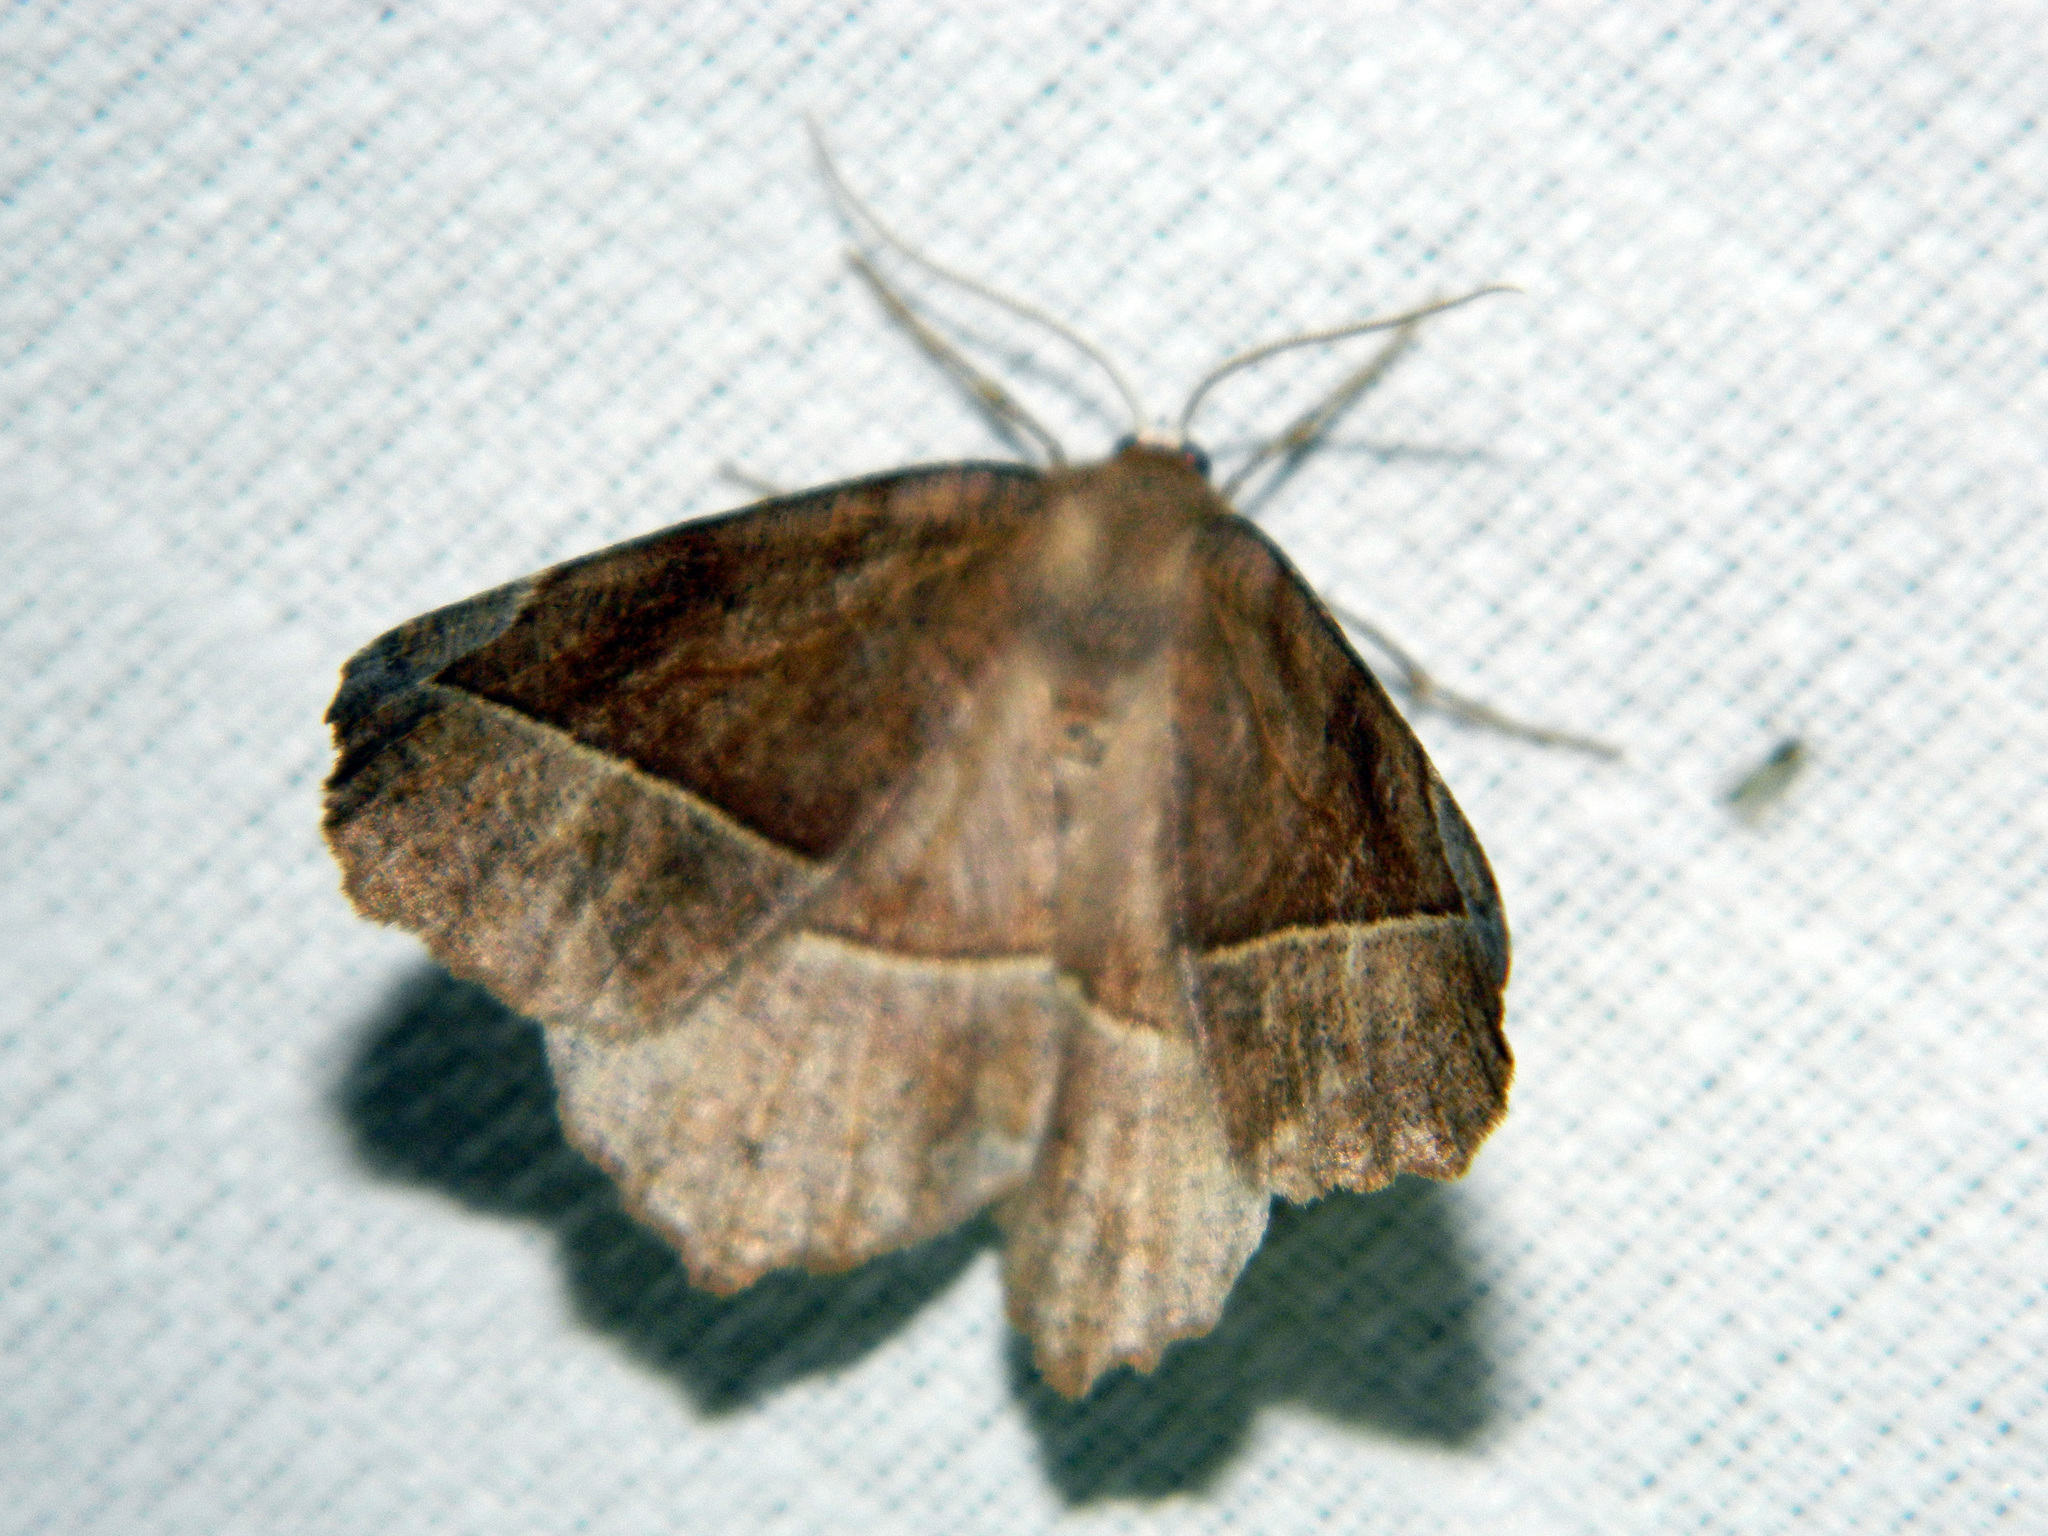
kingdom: Animalia
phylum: Arthropoda
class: Insecta
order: Lepidoptera
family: Geometridae
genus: Eutrapela
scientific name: Eutrapela clemataria
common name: Curved-toothed geometer
